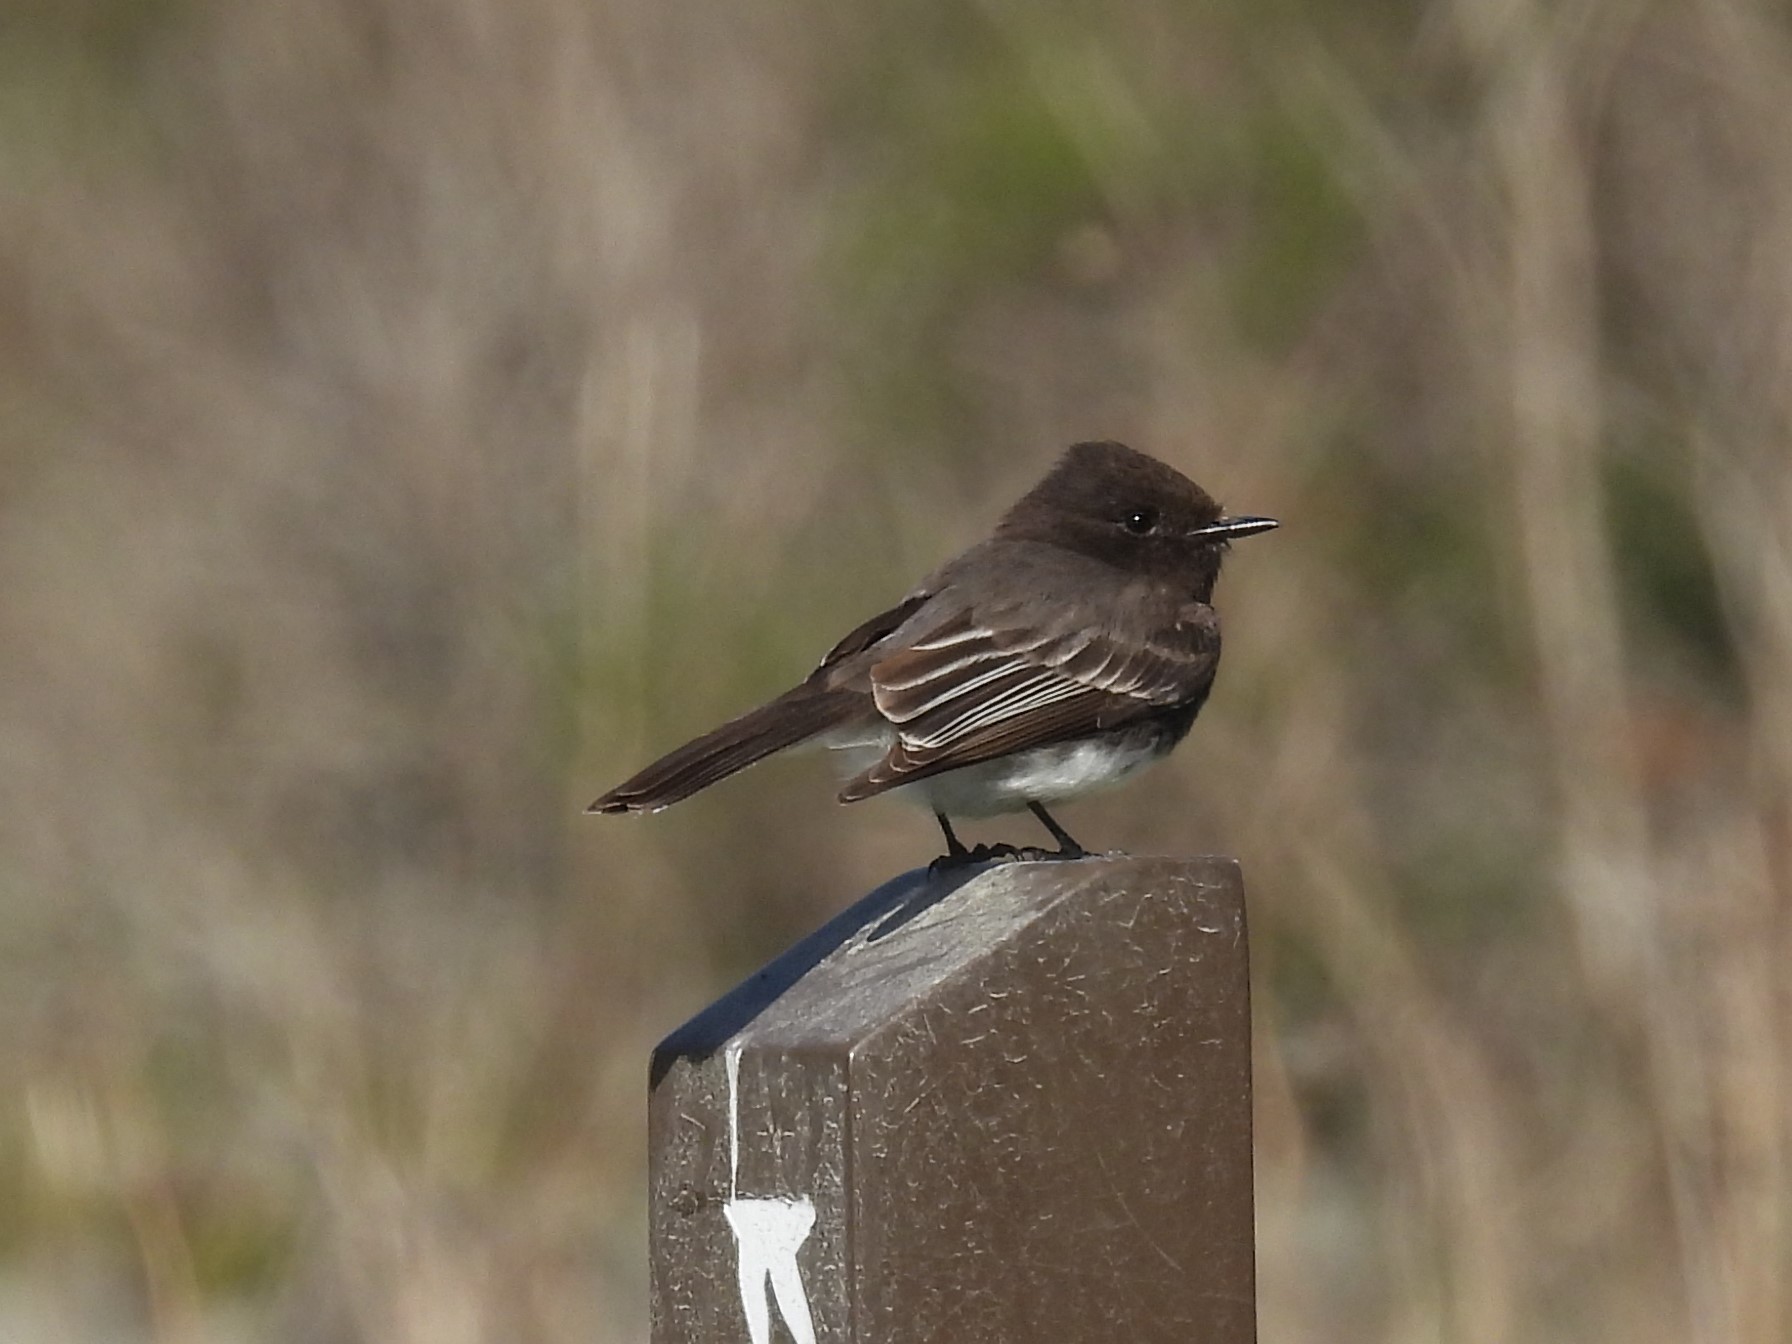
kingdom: Animalia
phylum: Chordata
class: Aves
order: Passeriformes
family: Tyrannidae
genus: Sayornis
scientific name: Sayornis nigricans
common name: Black phoebe
